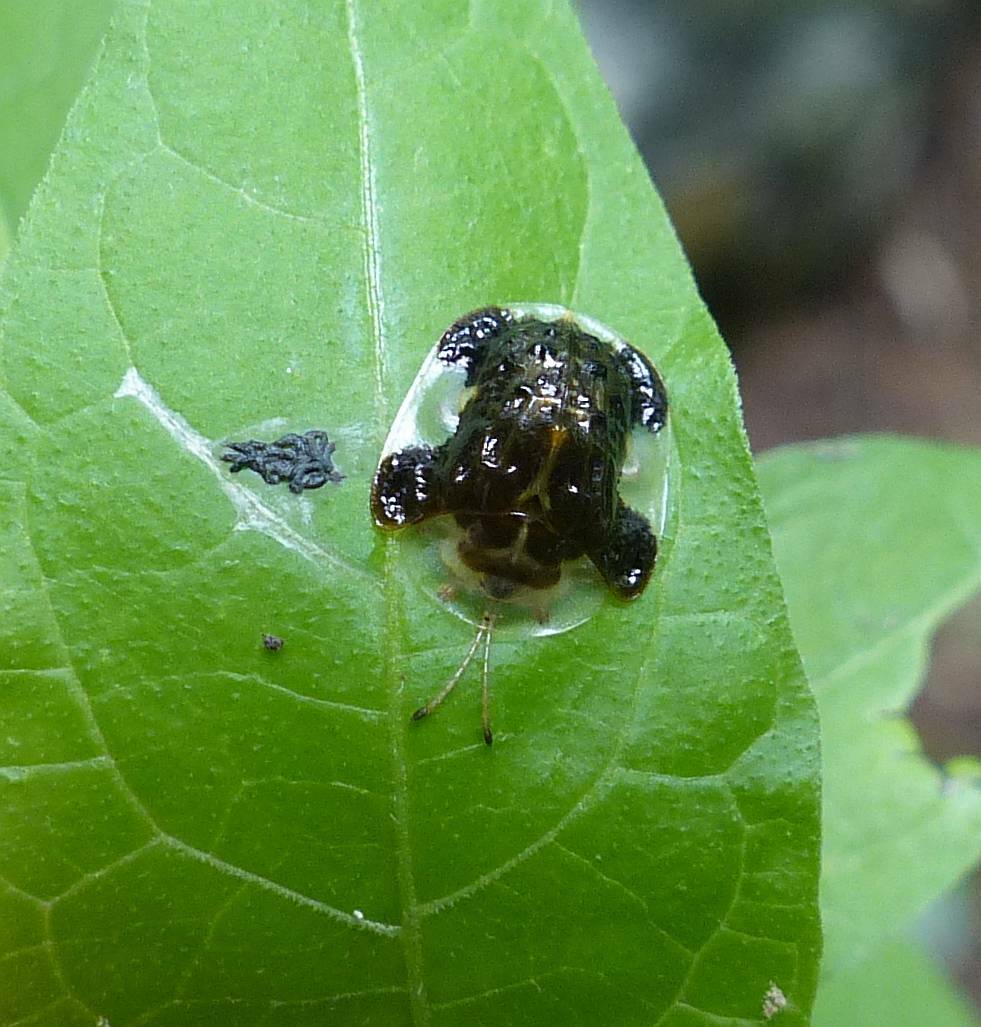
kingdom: Animalia
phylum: Arthropoda
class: Insecta
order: Coleoptera
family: Chrysomelidae
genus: Helocassis
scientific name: Helocassis clavata
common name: Clavate tortoise beetle
